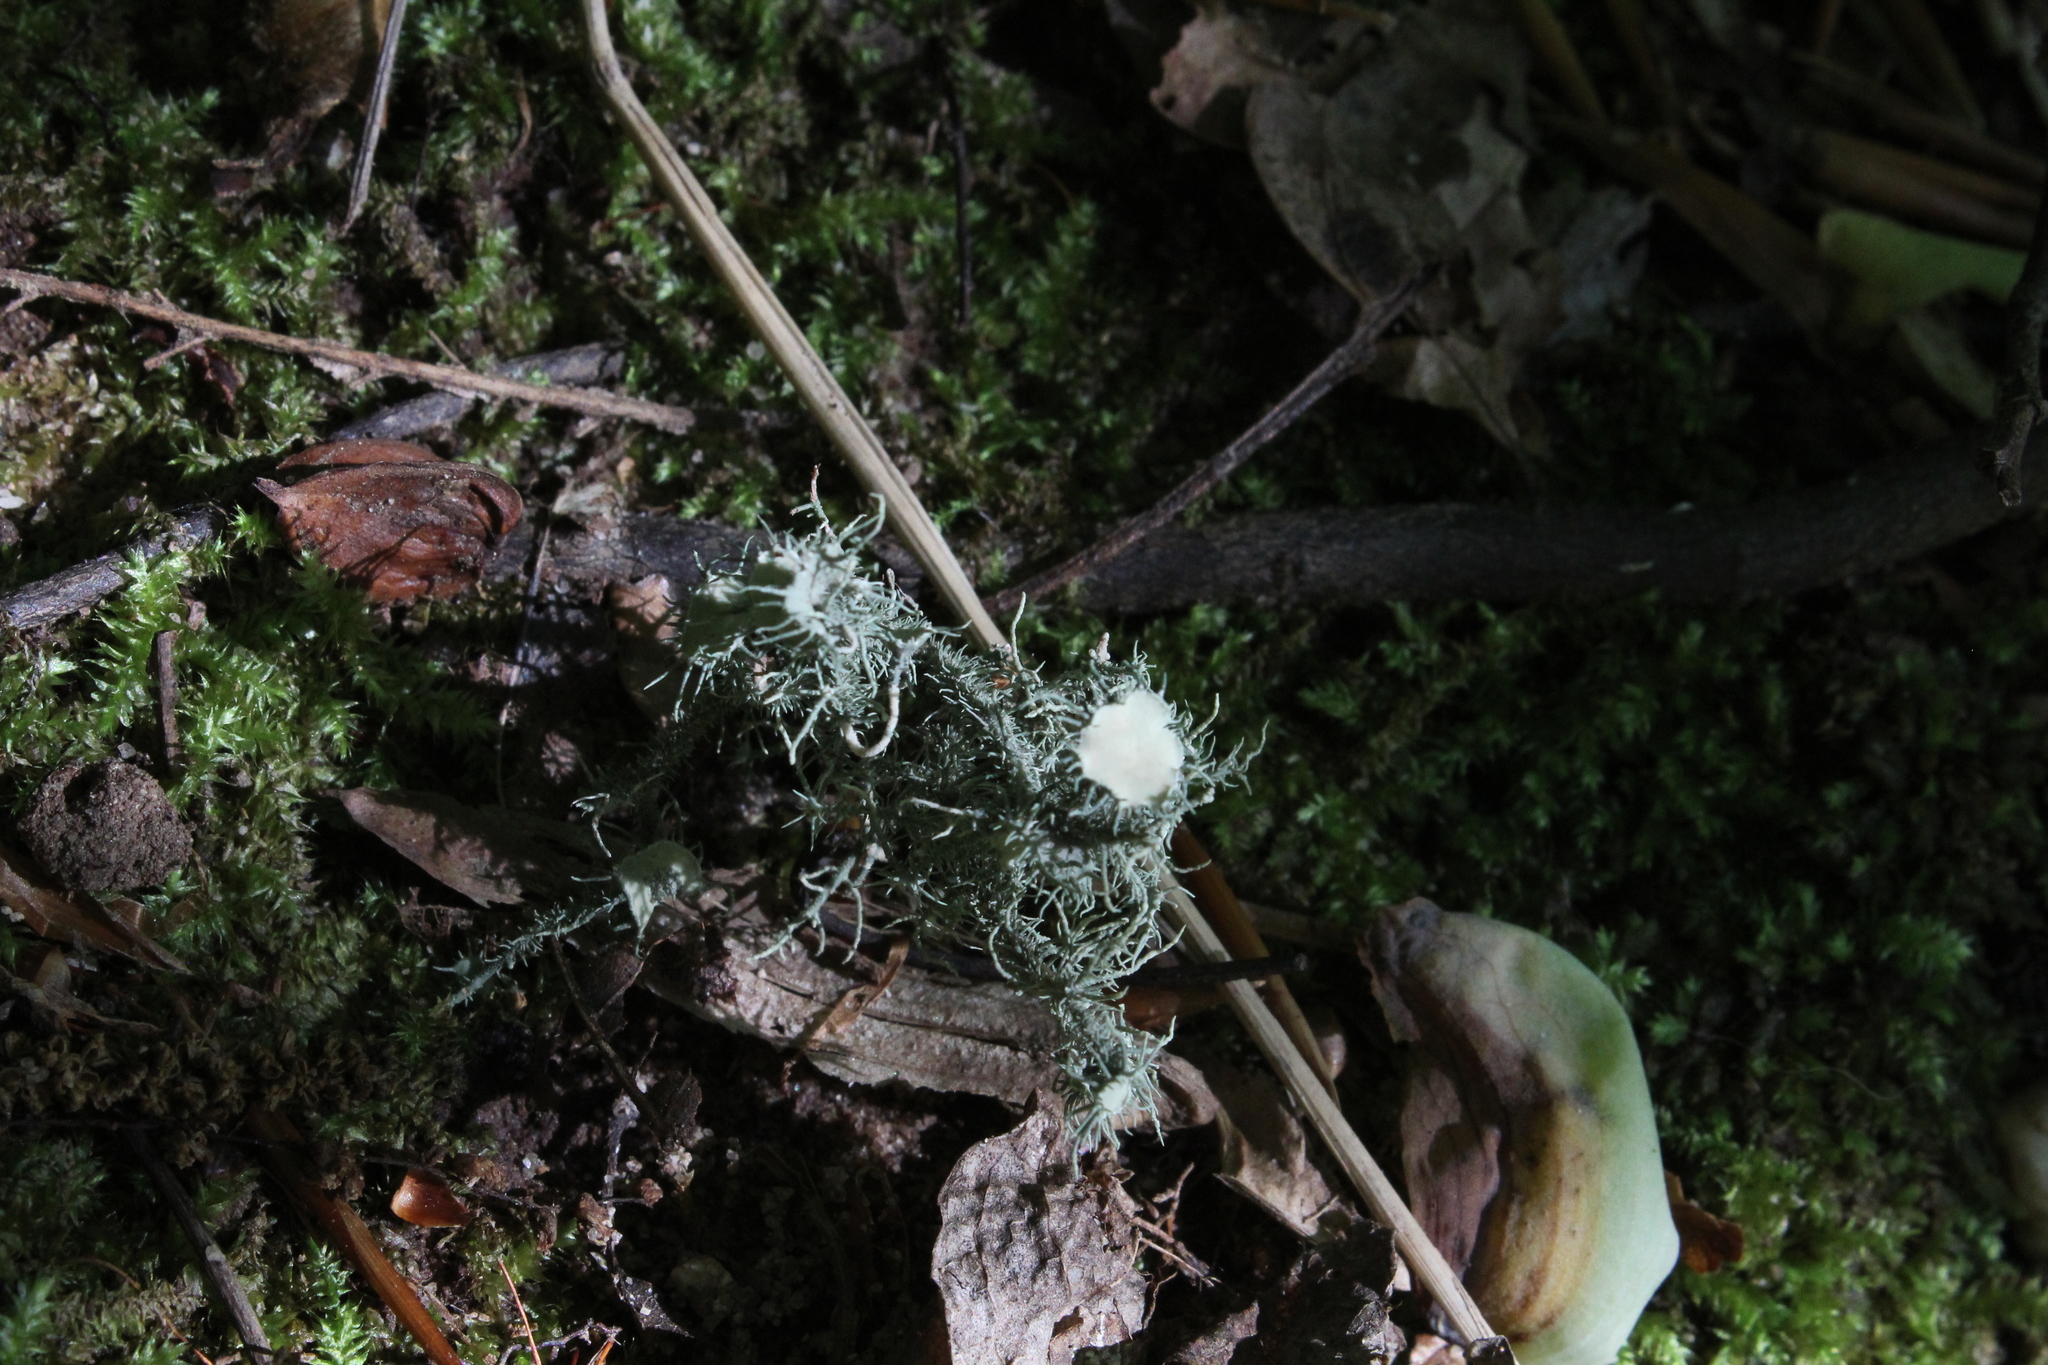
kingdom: Fungi
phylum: Ascomycota
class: Lecanoromycetes
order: Lecanorales
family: Parmeliaceae
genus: Usnea
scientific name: Usnea strigosa
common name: Bushy beard lichen
